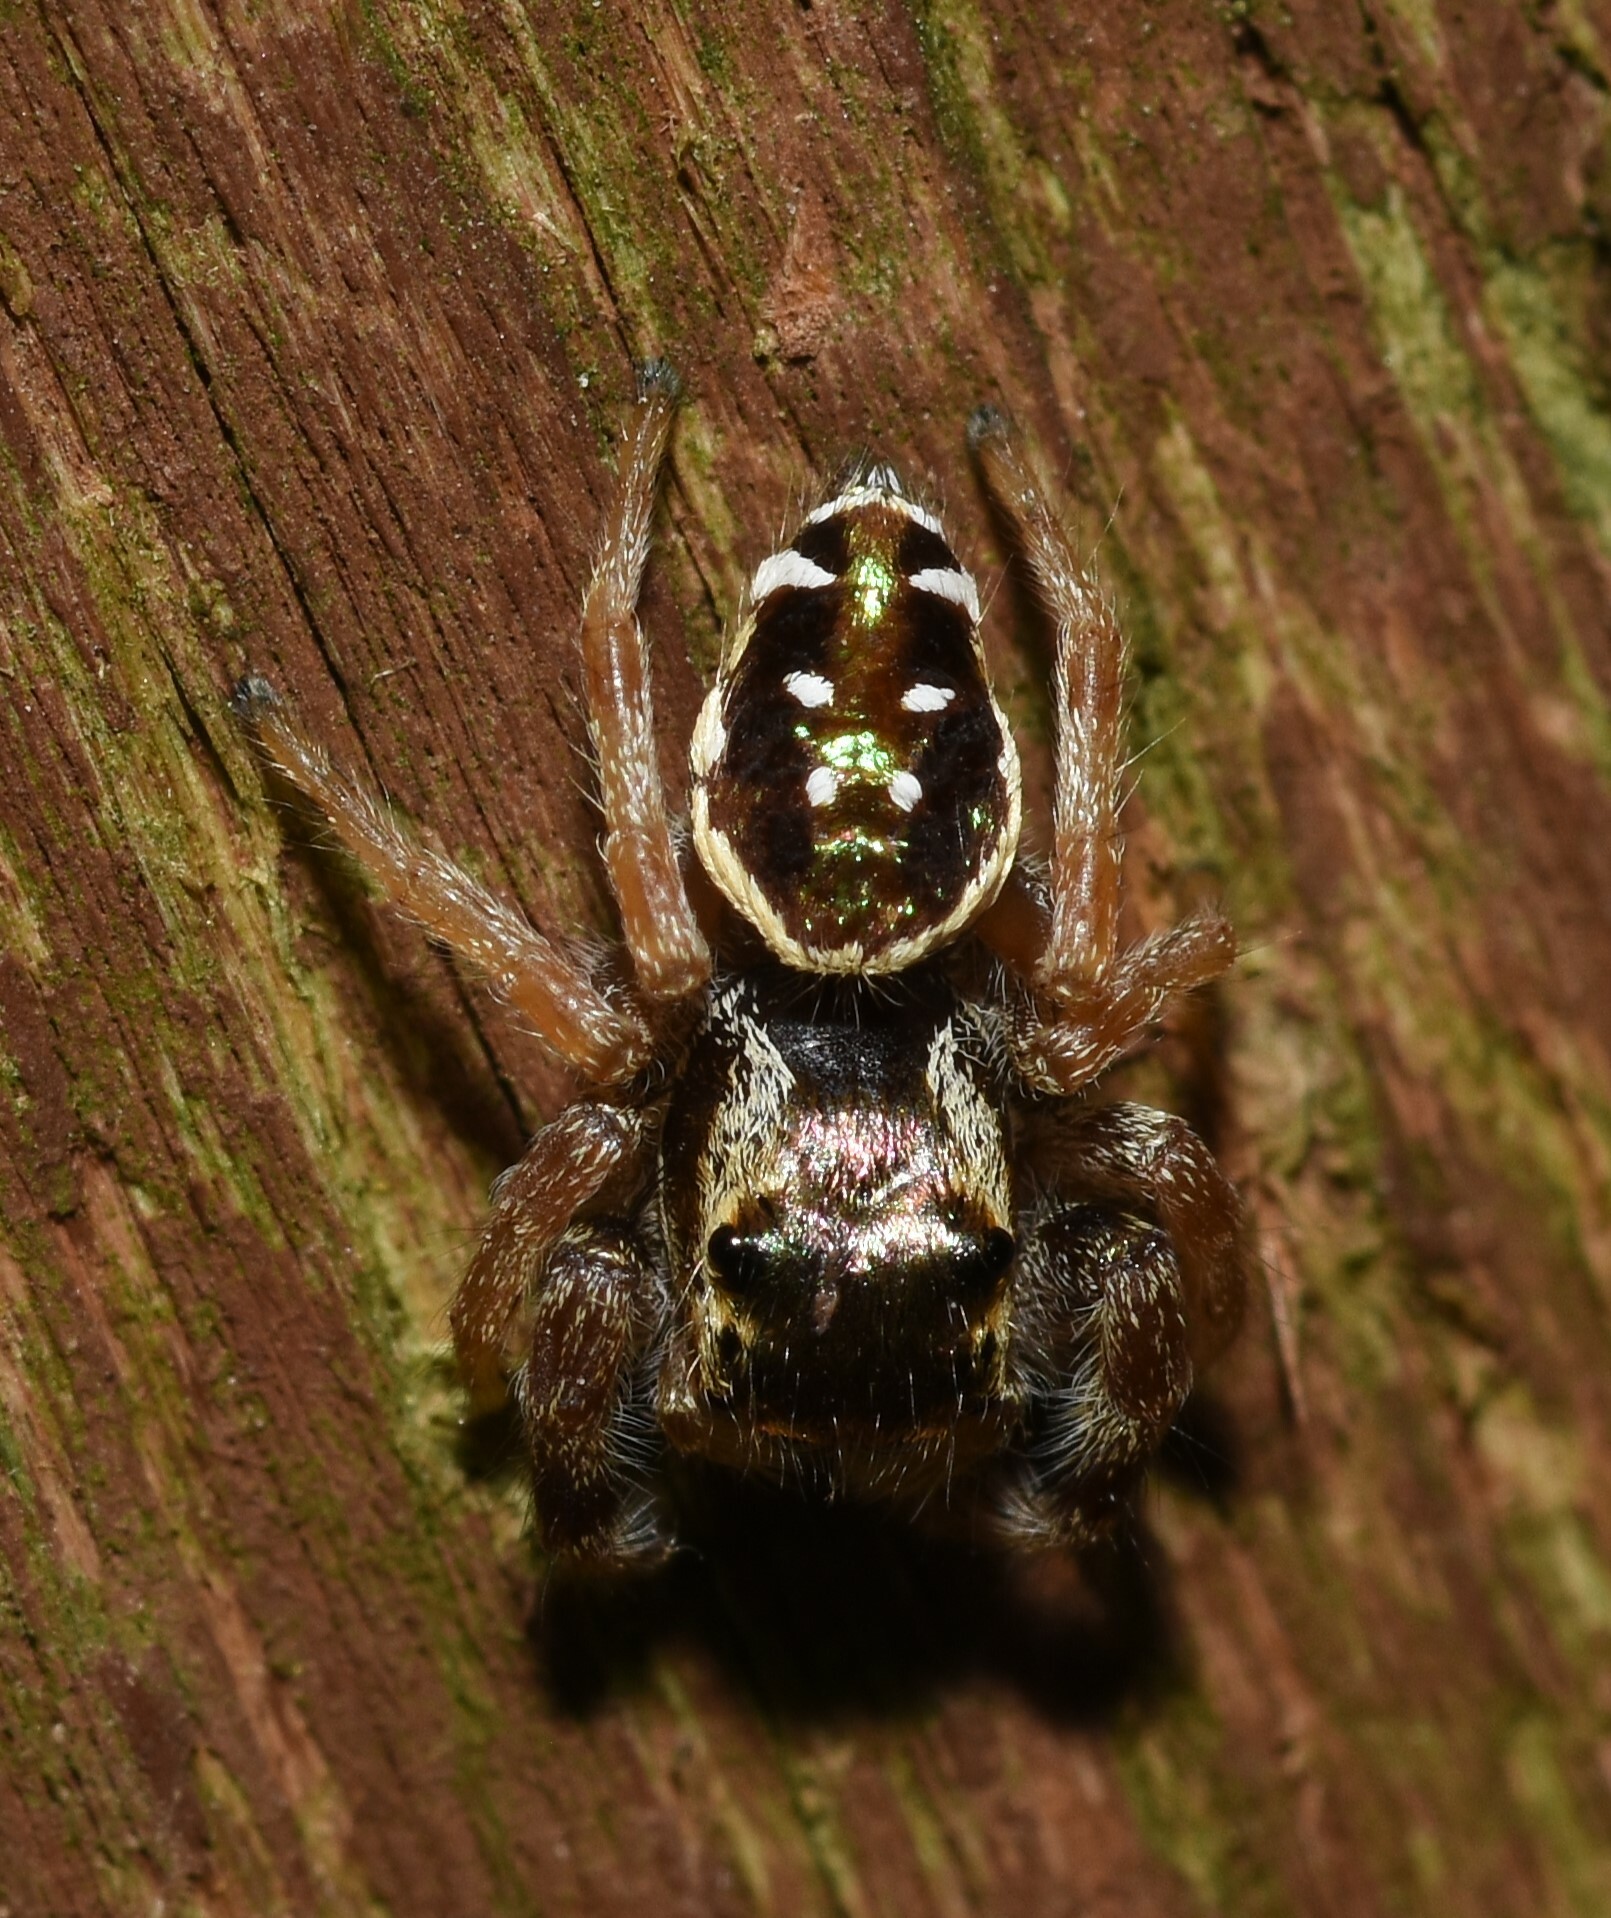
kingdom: Animalia
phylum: Arthropoda
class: Arachnida
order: Araneae
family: Salticidae
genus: Paraphidippus
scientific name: Paraphidippus aurantius
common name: Jumping spiders
